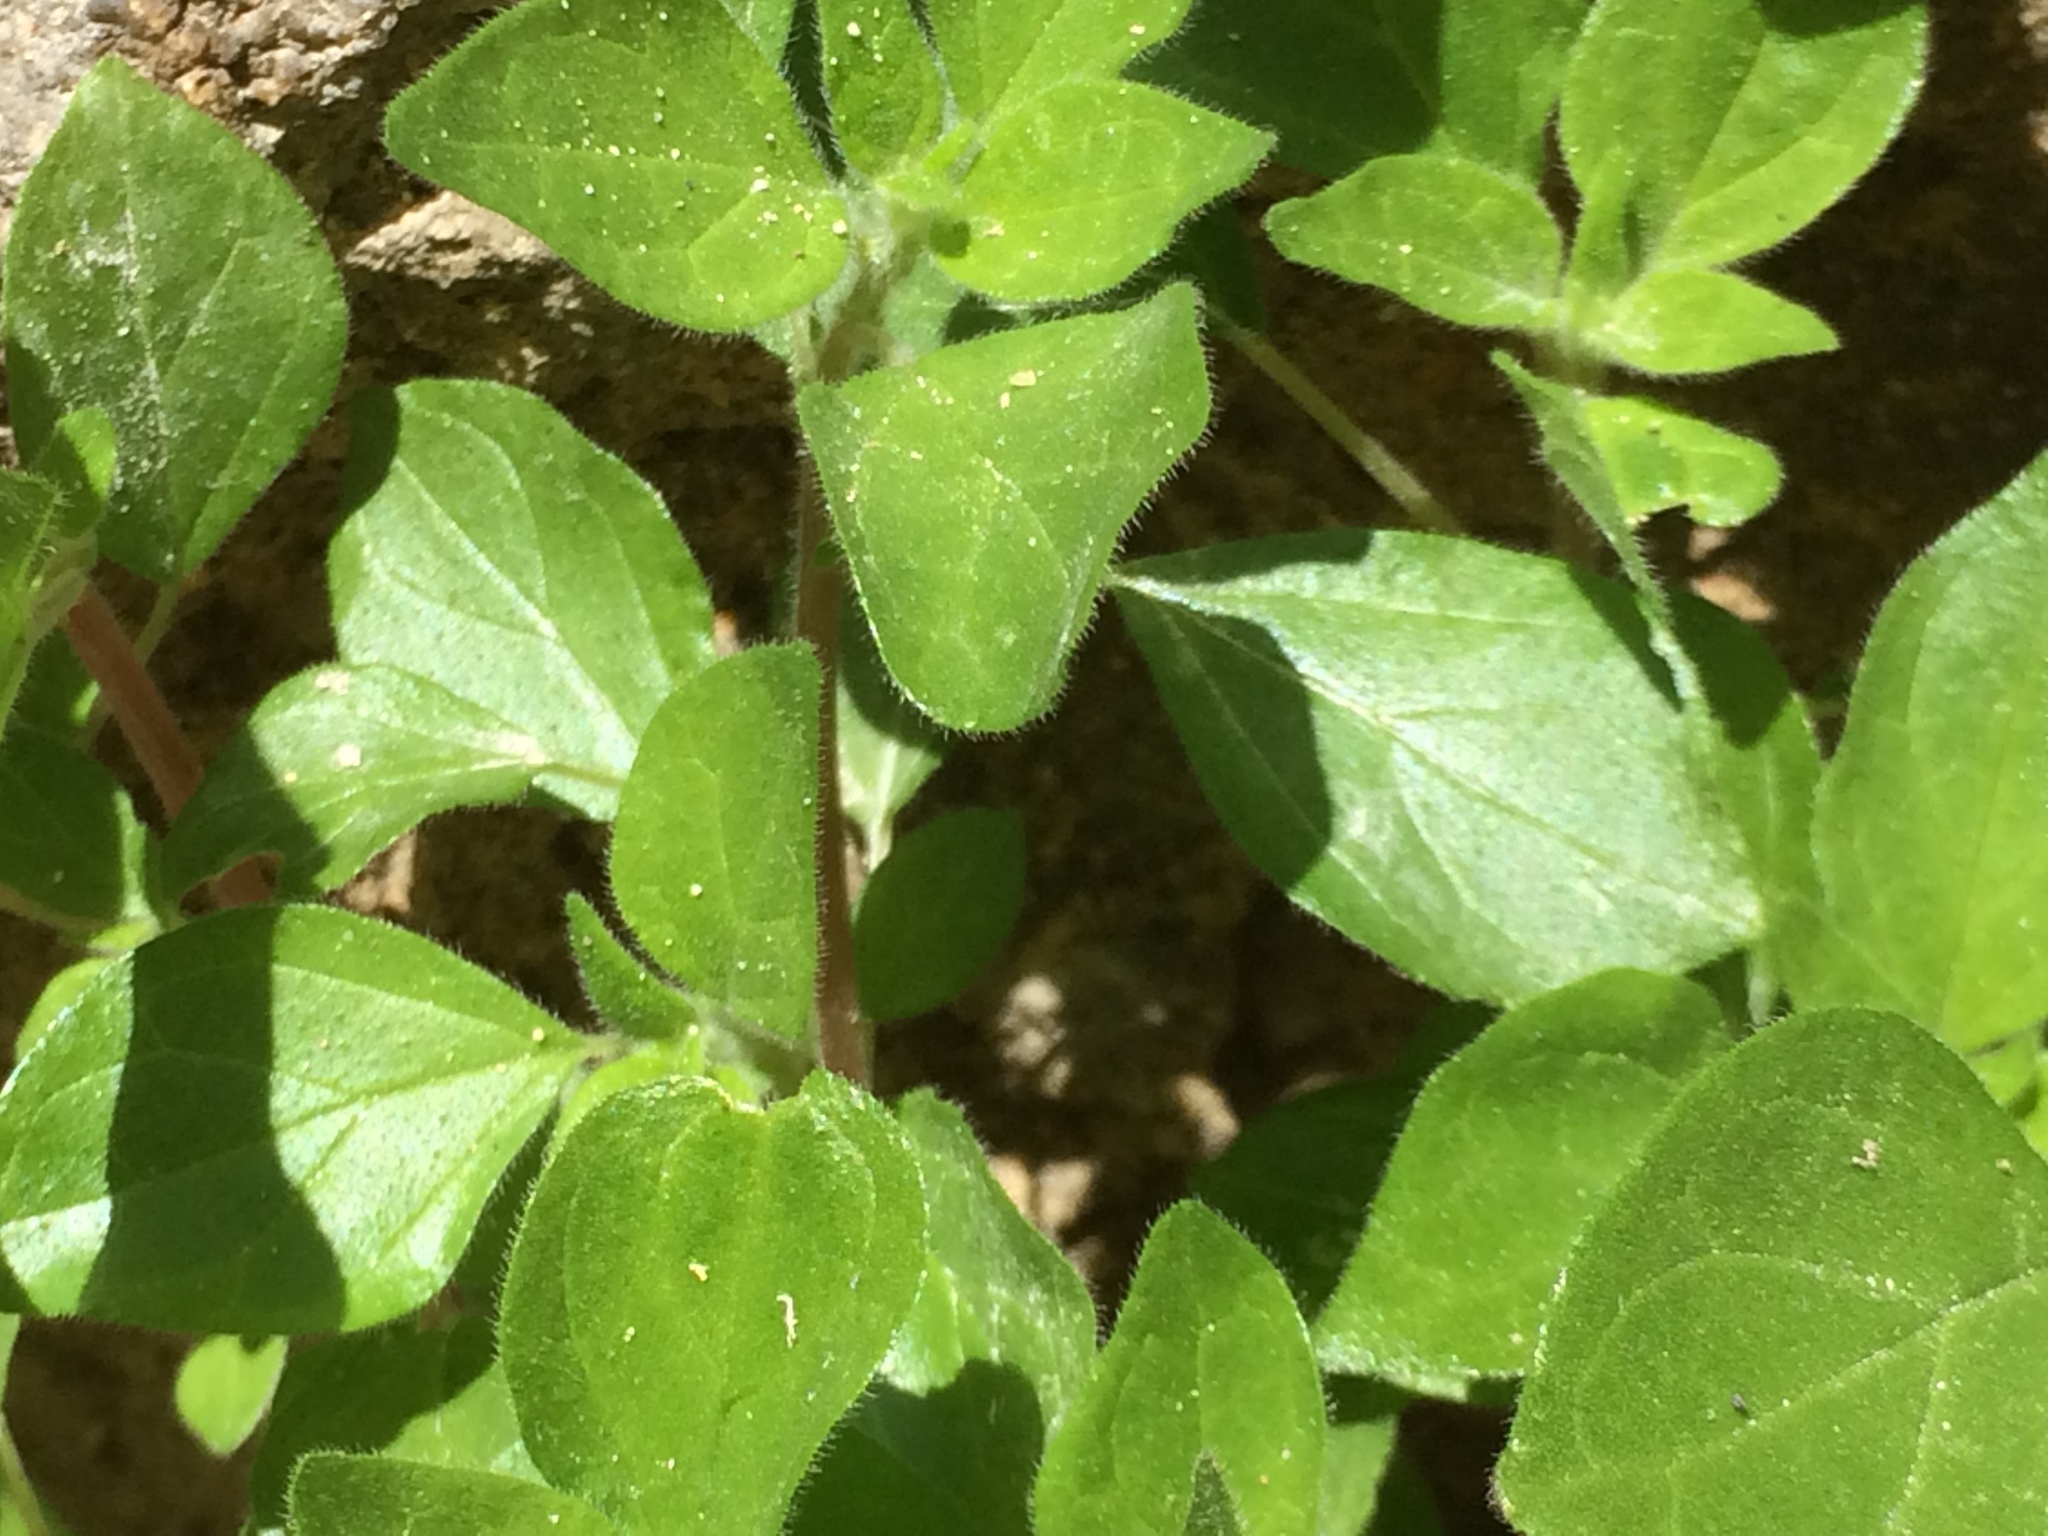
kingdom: Plantae
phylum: Tracheophyta
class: Magnoliopsida
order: Rosales
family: Urticaceae
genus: Parietaria
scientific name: Parietaria judaica
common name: Pellitory-of-the-wall
